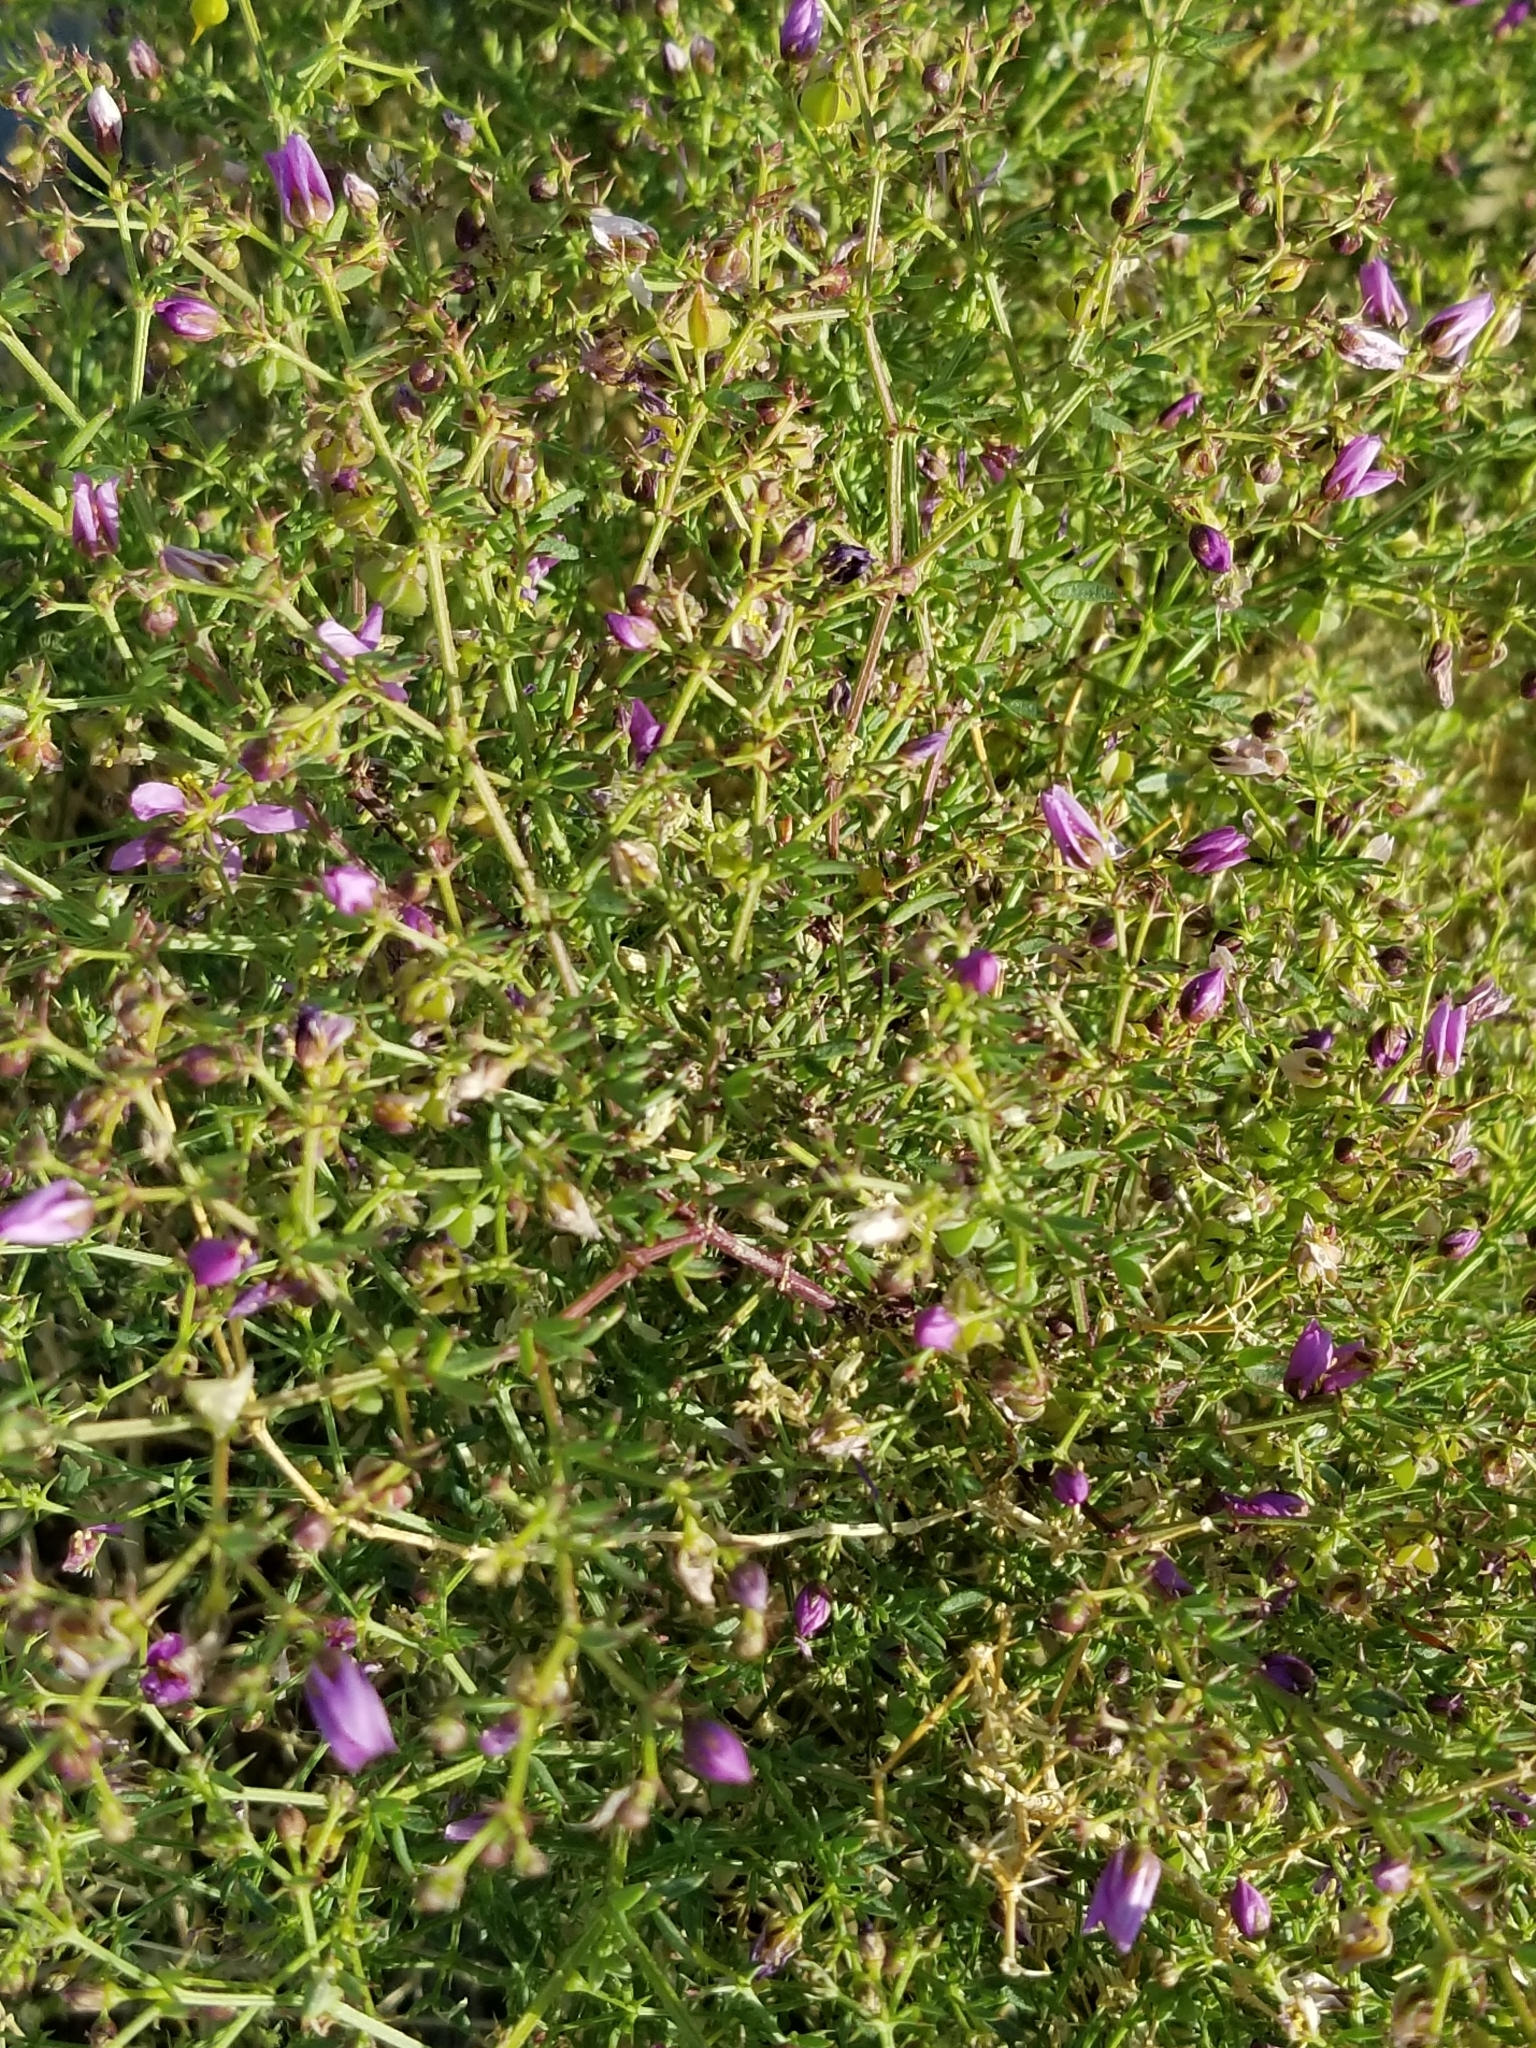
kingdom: Plantae
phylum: Tracheophyta
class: Magnoliopsida
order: Zygophyllales
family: Zygophyllaceae
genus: Fagonia
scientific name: Fagonia laevis
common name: California fagonbush
